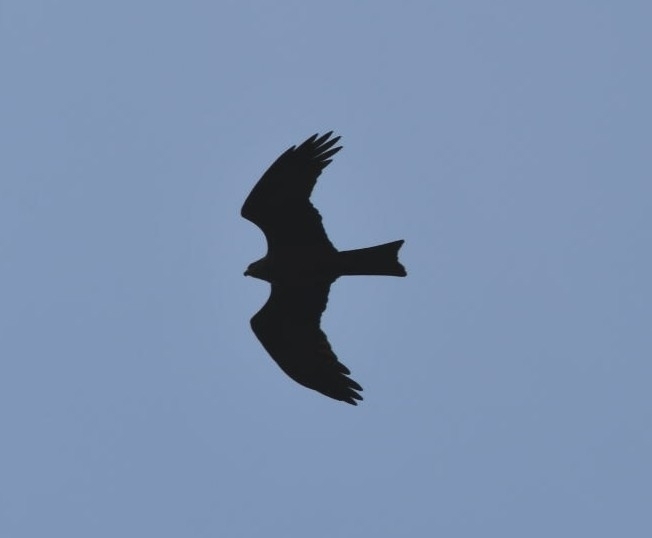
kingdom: Animalia
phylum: Chordata
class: Aves
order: Accipitriformes
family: Accipitridae
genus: Milvus
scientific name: Milvus migrans
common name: Black kite
